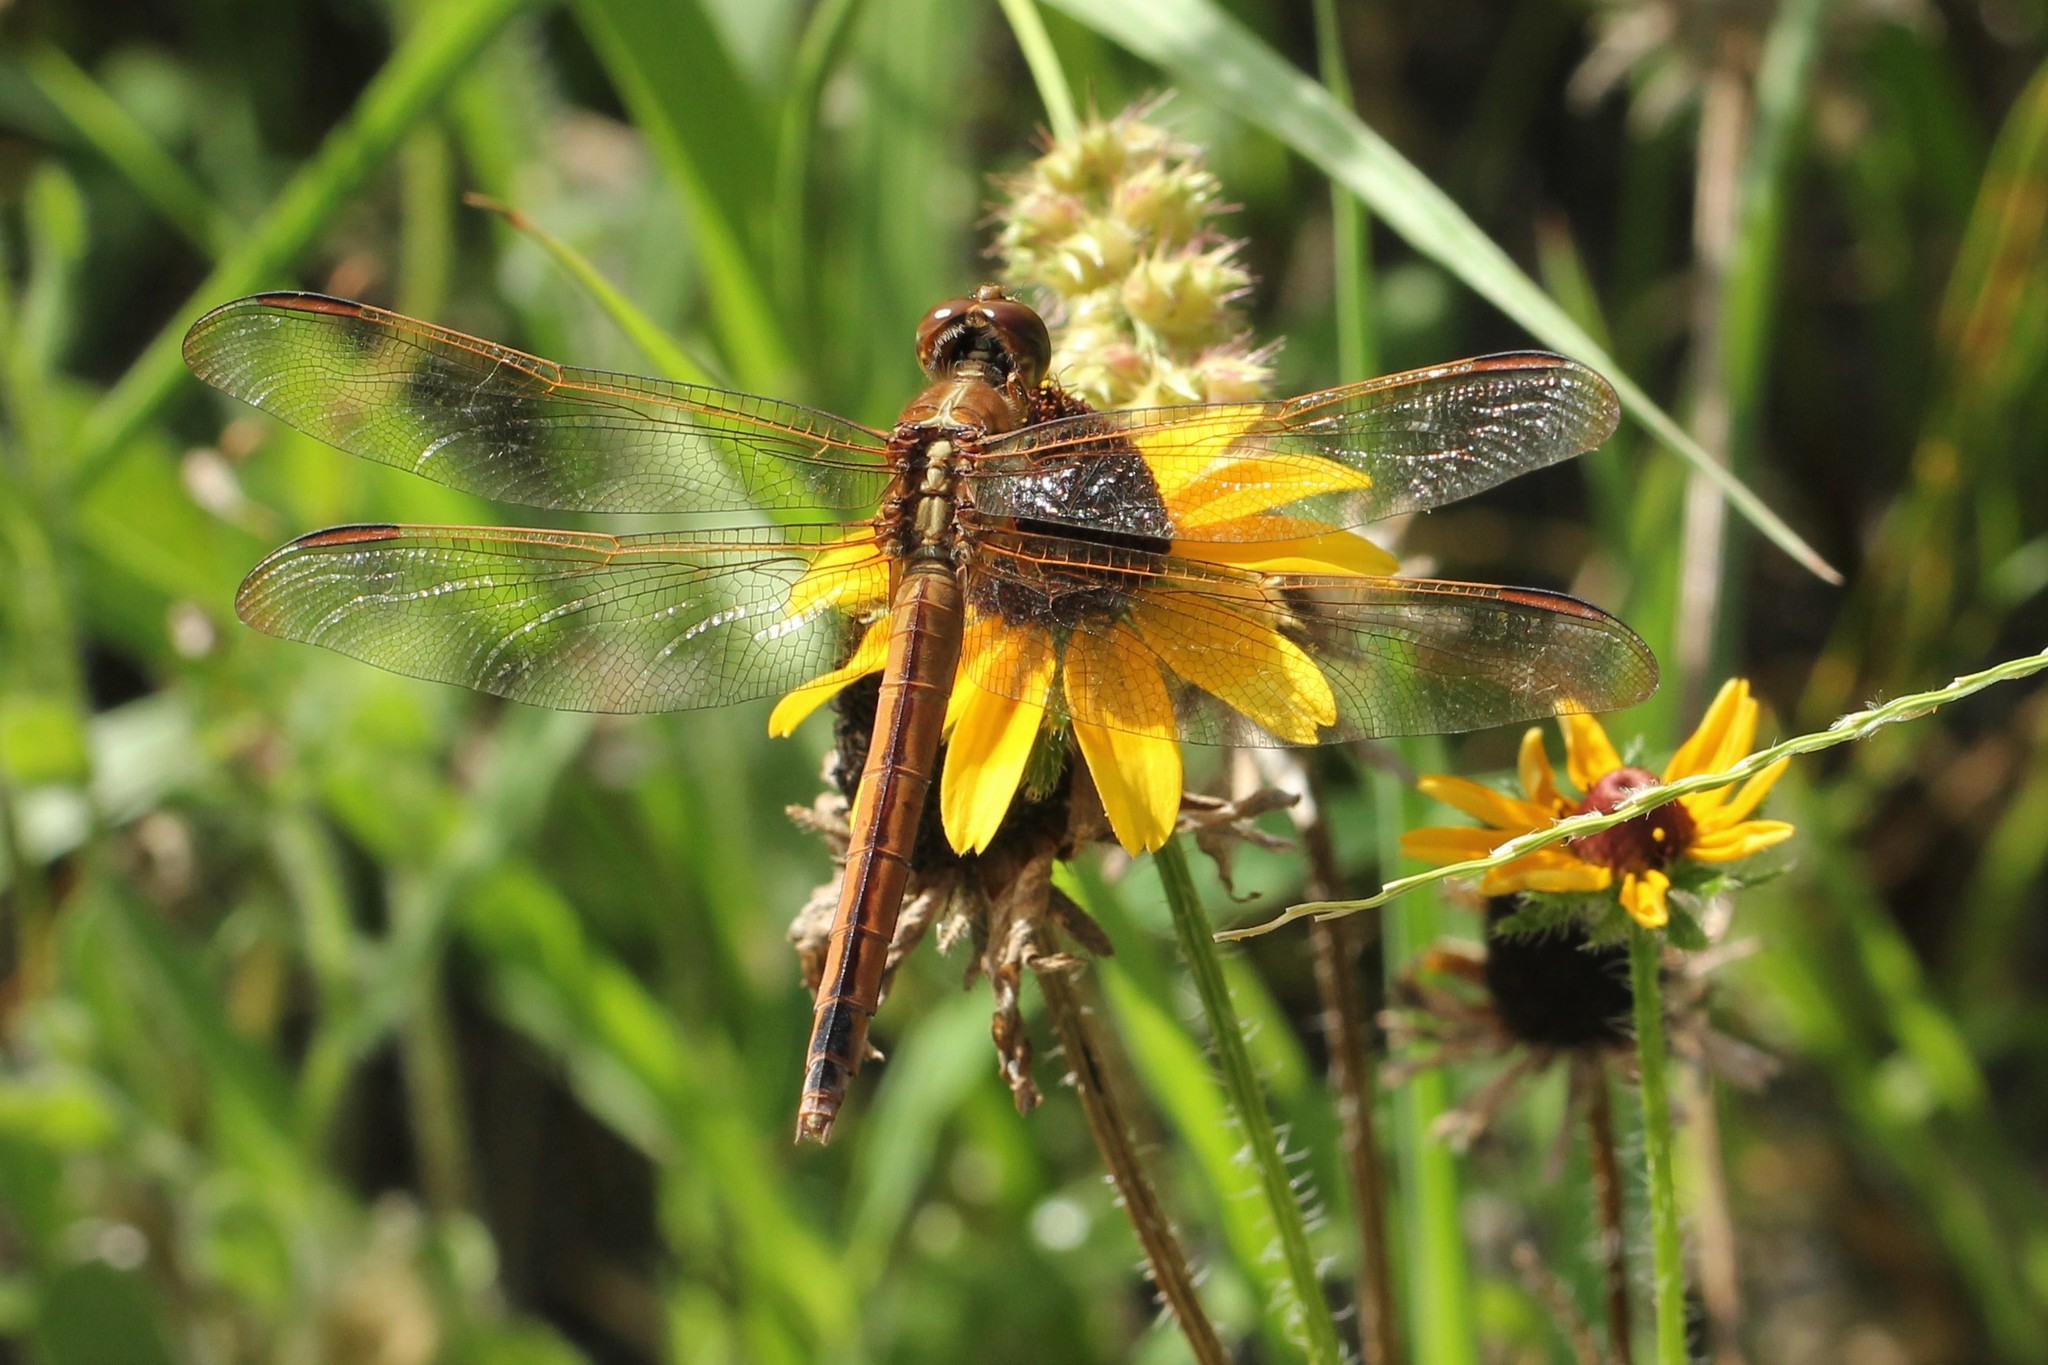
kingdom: Animalia
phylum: Arthropoda
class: Insecta
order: Odonata
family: Libellulidae
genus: Libellula
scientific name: Libellula needhami
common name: Needham's skimmer
